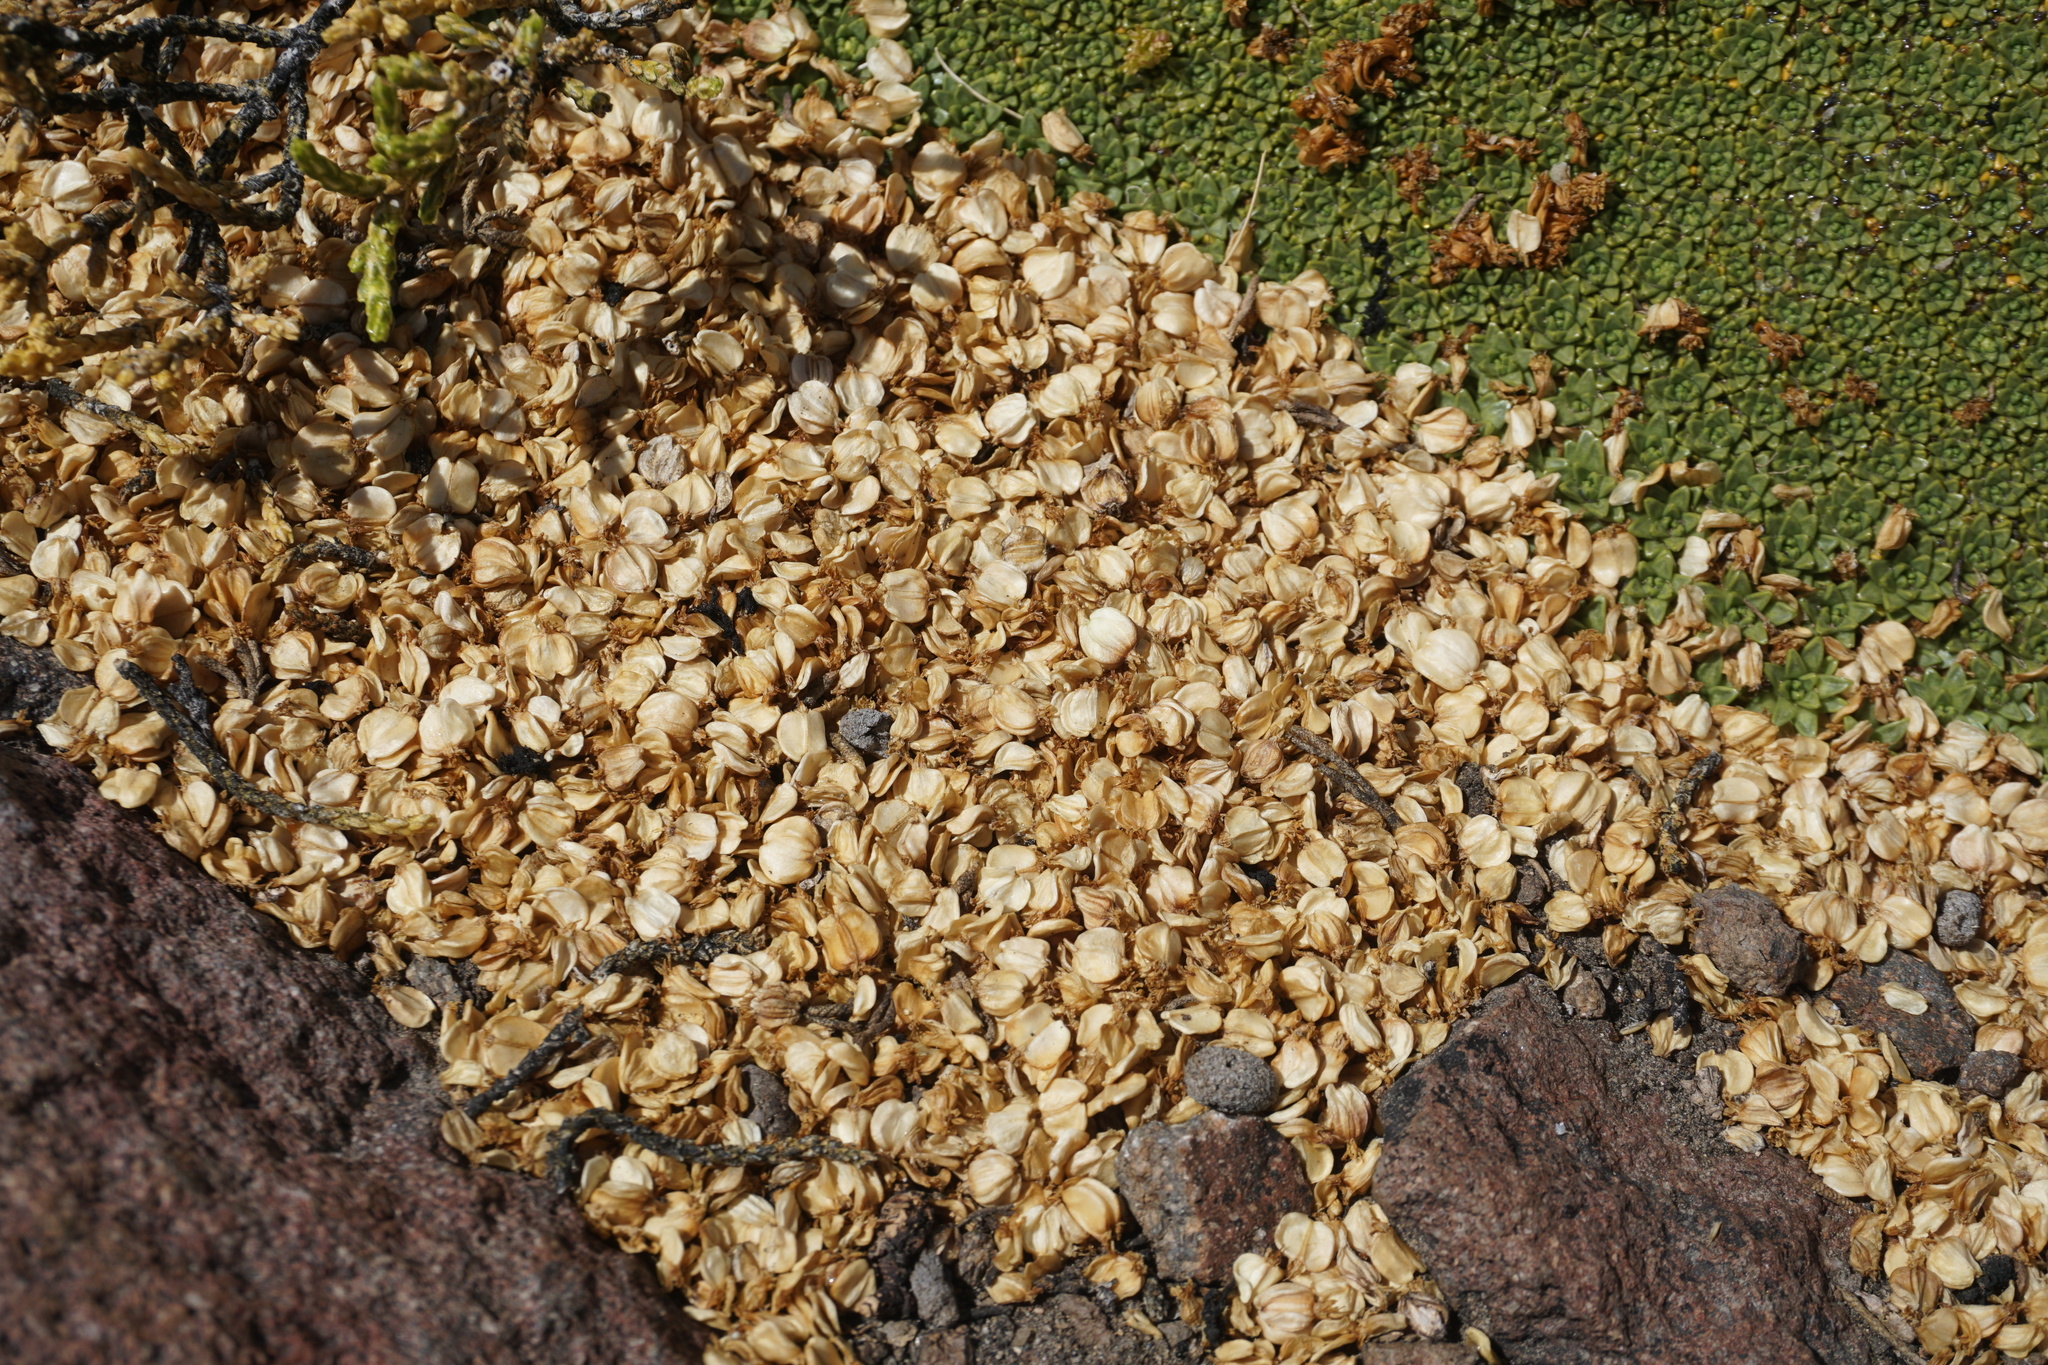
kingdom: Plantae
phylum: Tracheophyta
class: Magnoliopsida
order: Apiales
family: Apiaceae
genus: Azorella
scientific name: Azorella compacta
